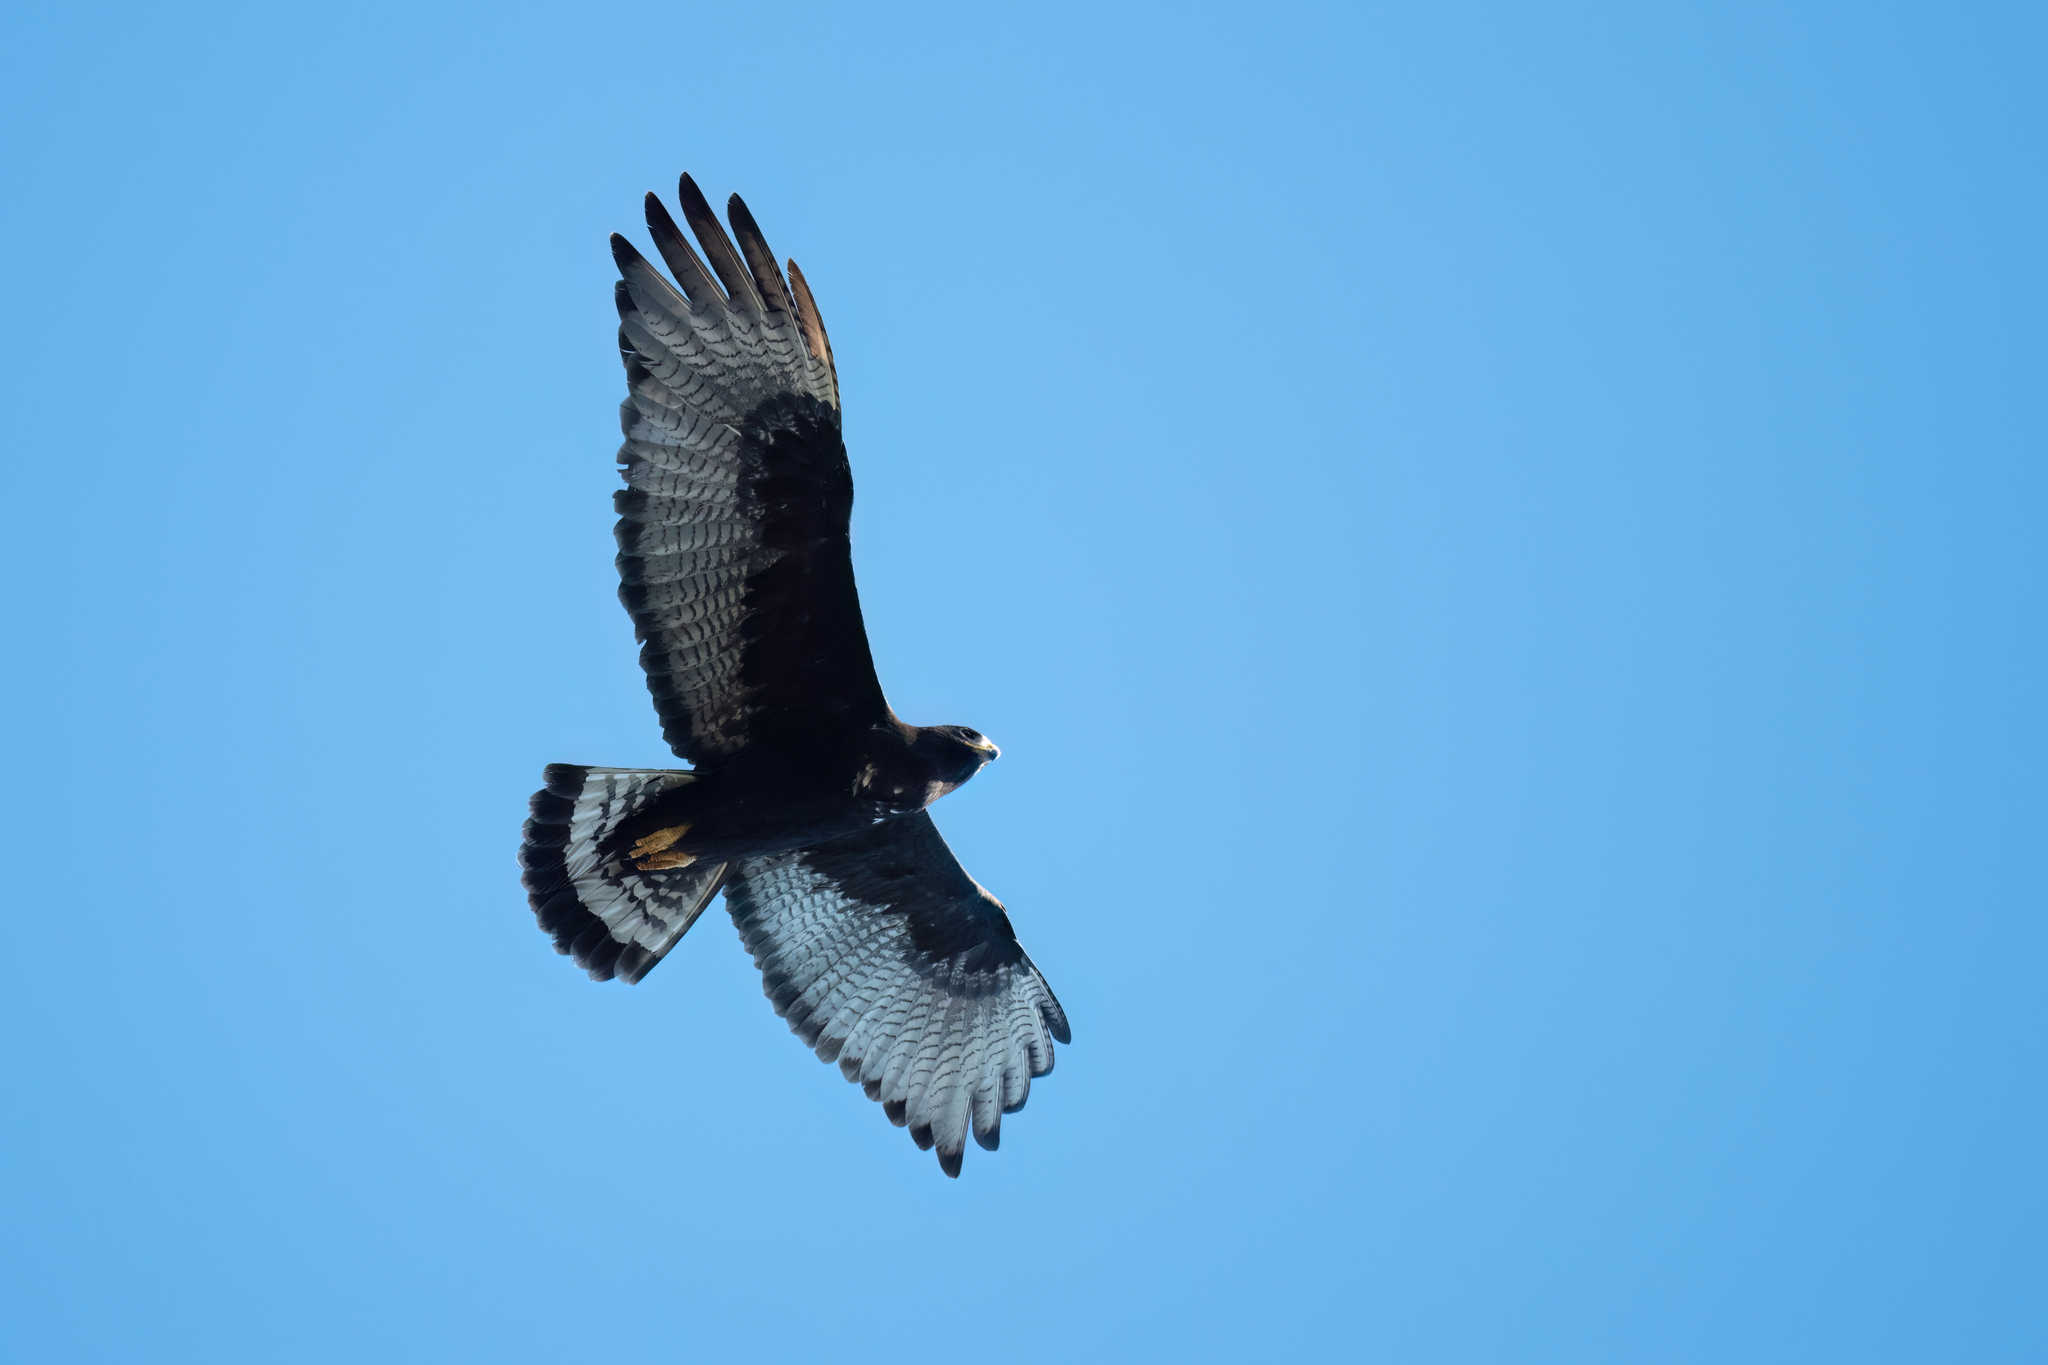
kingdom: Animalia
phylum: Chordata
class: Aves
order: Accipitriformes
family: Accipitridae
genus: Buteo
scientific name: Buteo albonotatus
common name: Zone-tailed hawk
